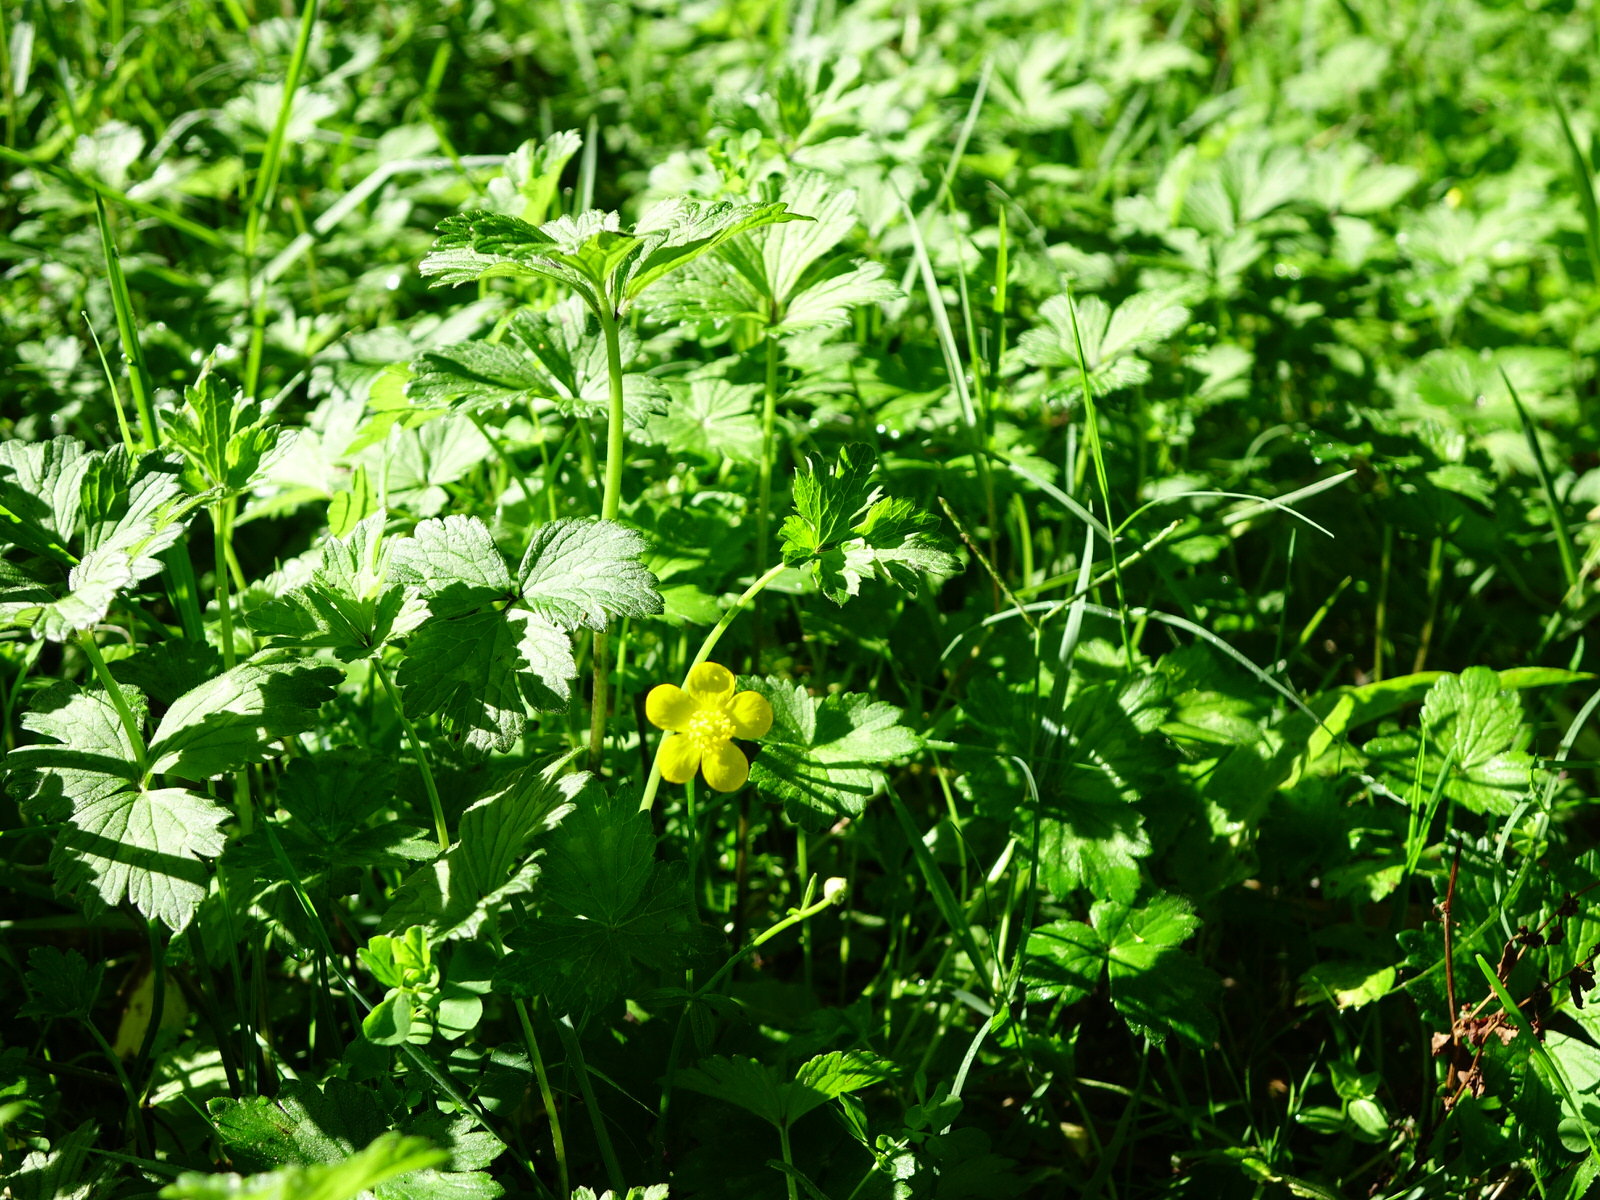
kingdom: Plantae
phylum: Tracheophyta
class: Magnoliopsida
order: Ranunculales
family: Ranunculaceae
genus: Ranunculus
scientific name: Ranunculus repens
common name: Creeping buttercup
